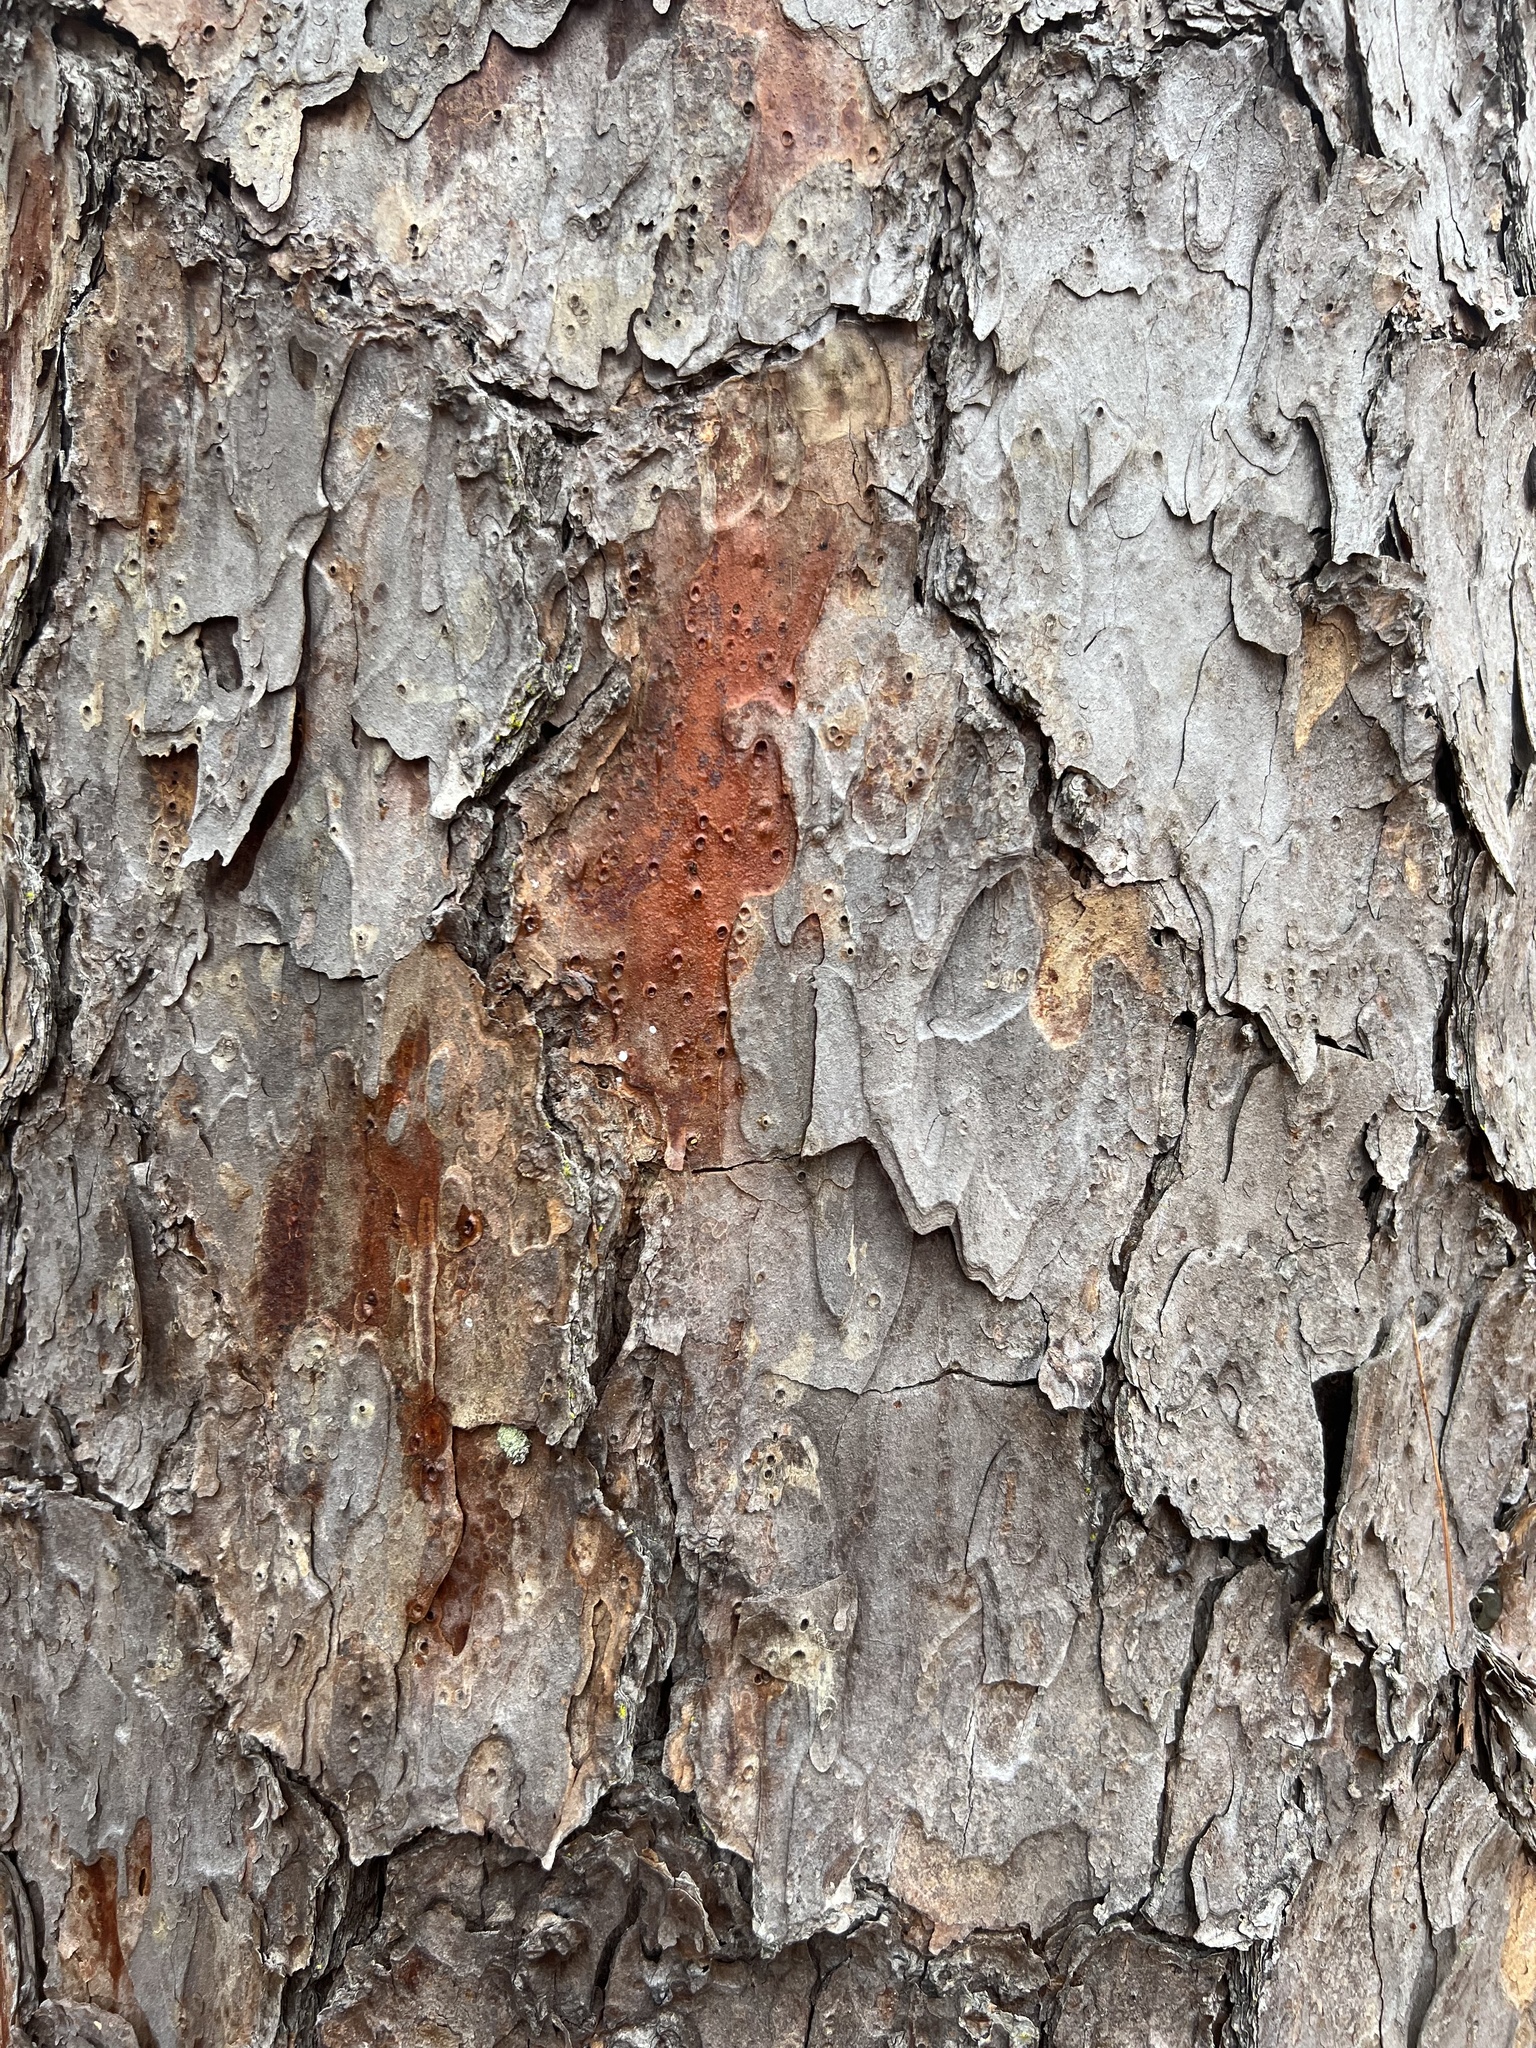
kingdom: Plantae
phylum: Tracheophyta
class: Pinopsida
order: Pinales
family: Pinaceae
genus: Pinus
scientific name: Pinus echinata
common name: Shortleaf pine
